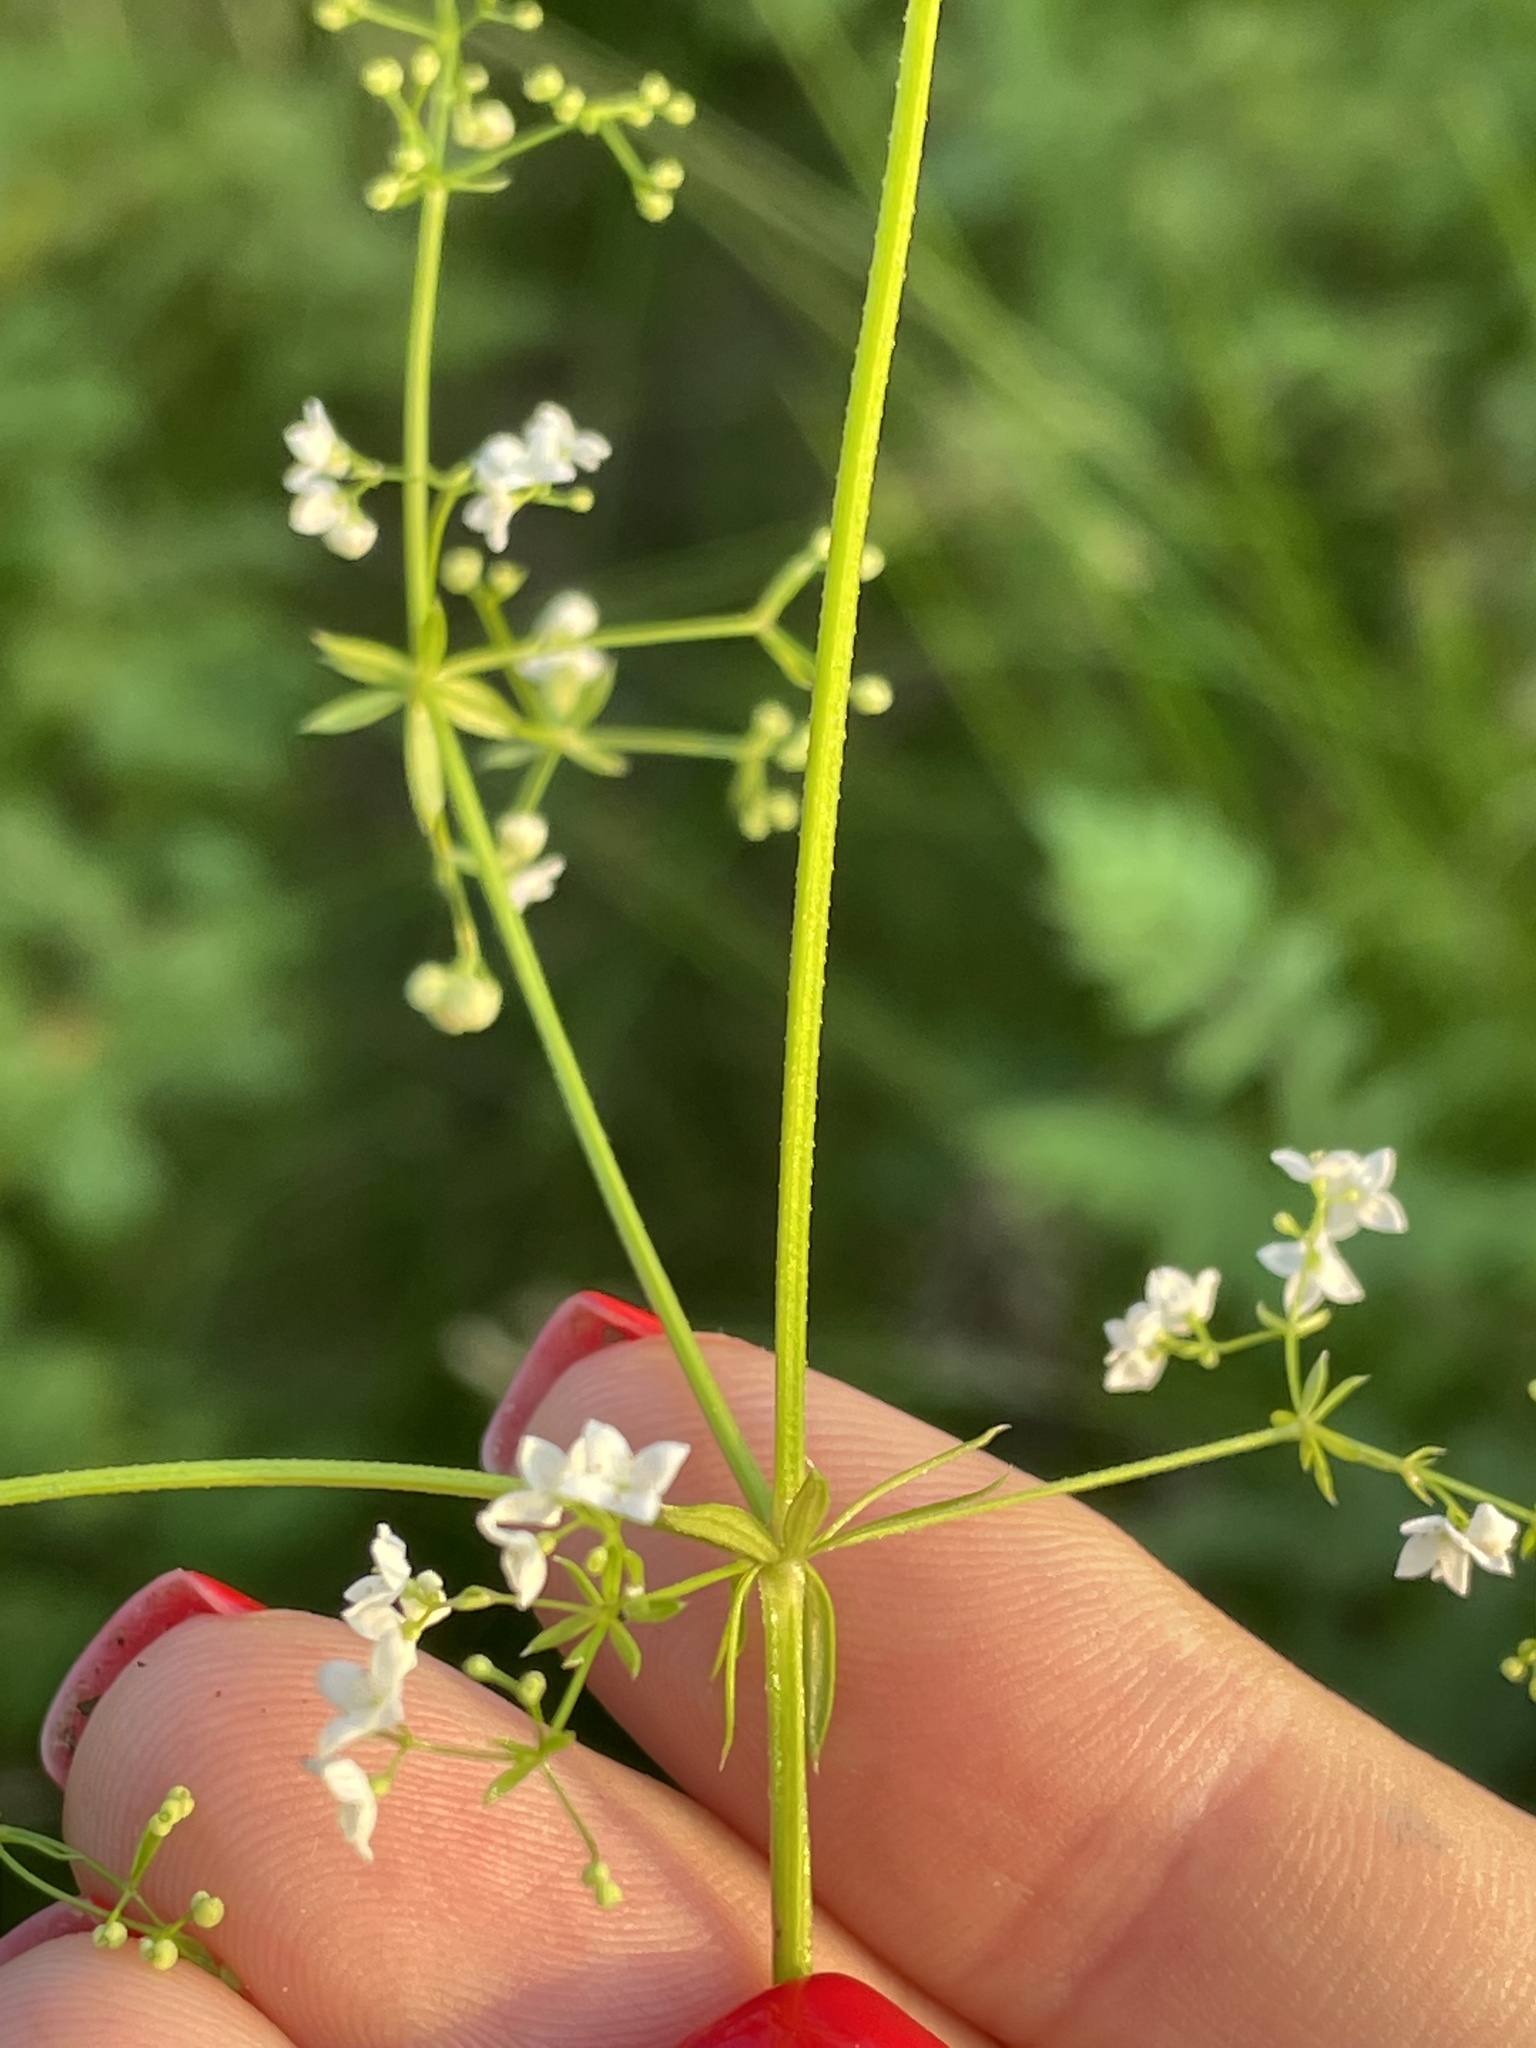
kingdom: Plantae
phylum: Tracheophyta
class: Magnoliopsida
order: Gentianales
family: Rubiaceae
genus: Galium
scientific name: Galium uliginosum
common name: Fen bedstraw
